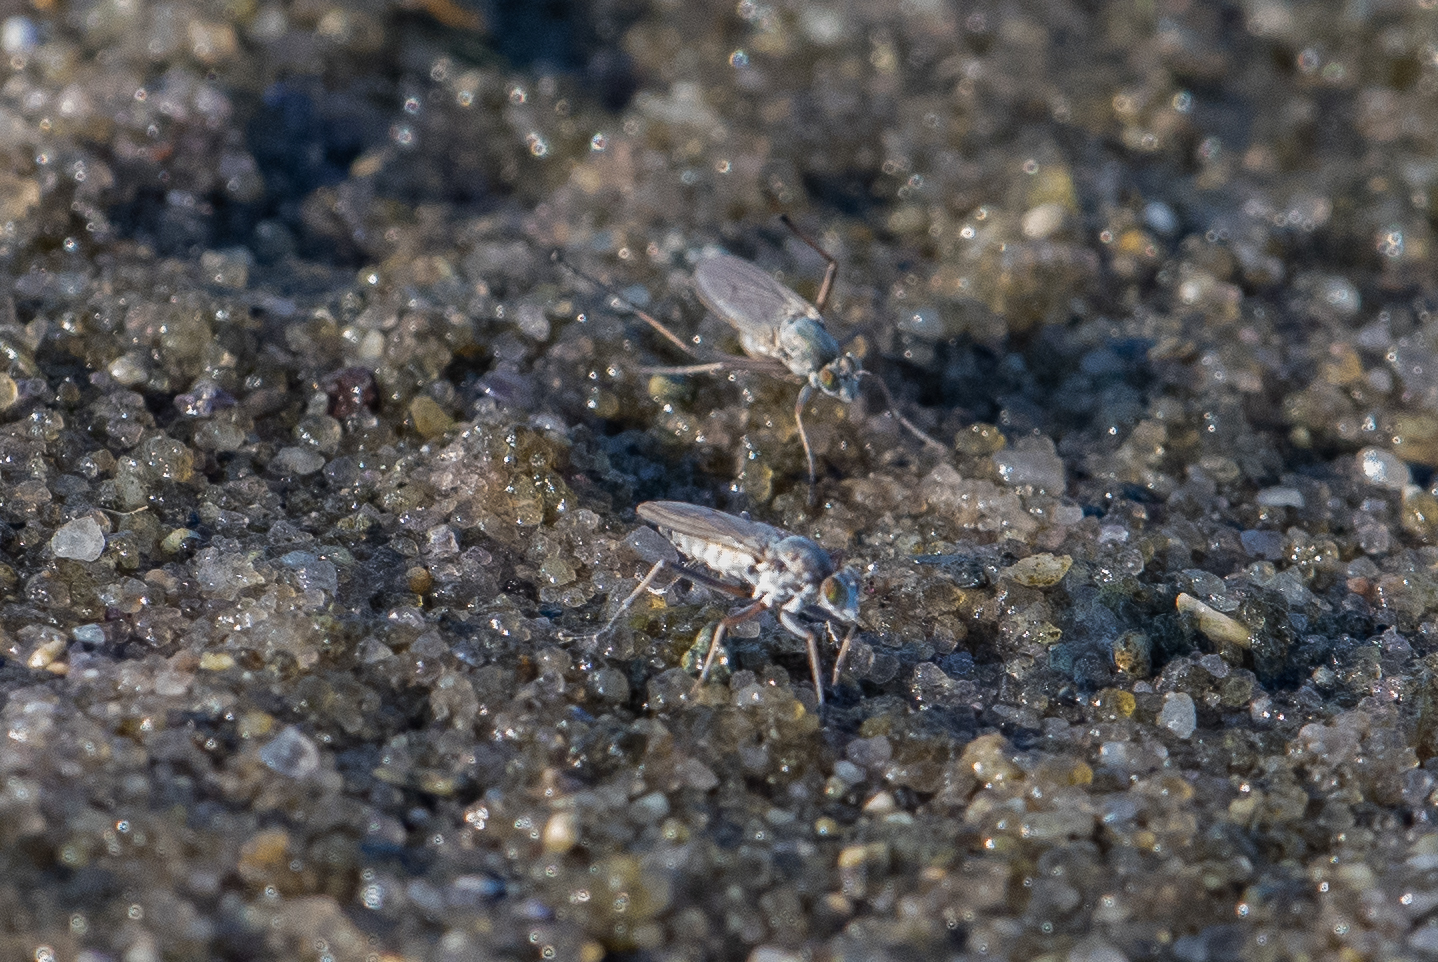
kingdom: Animalia
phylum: Arthropoda
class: Insecta
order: Diptera
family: Dolichopodidae
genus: Hypocharassus
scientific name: Hypocharassus pruinosus
